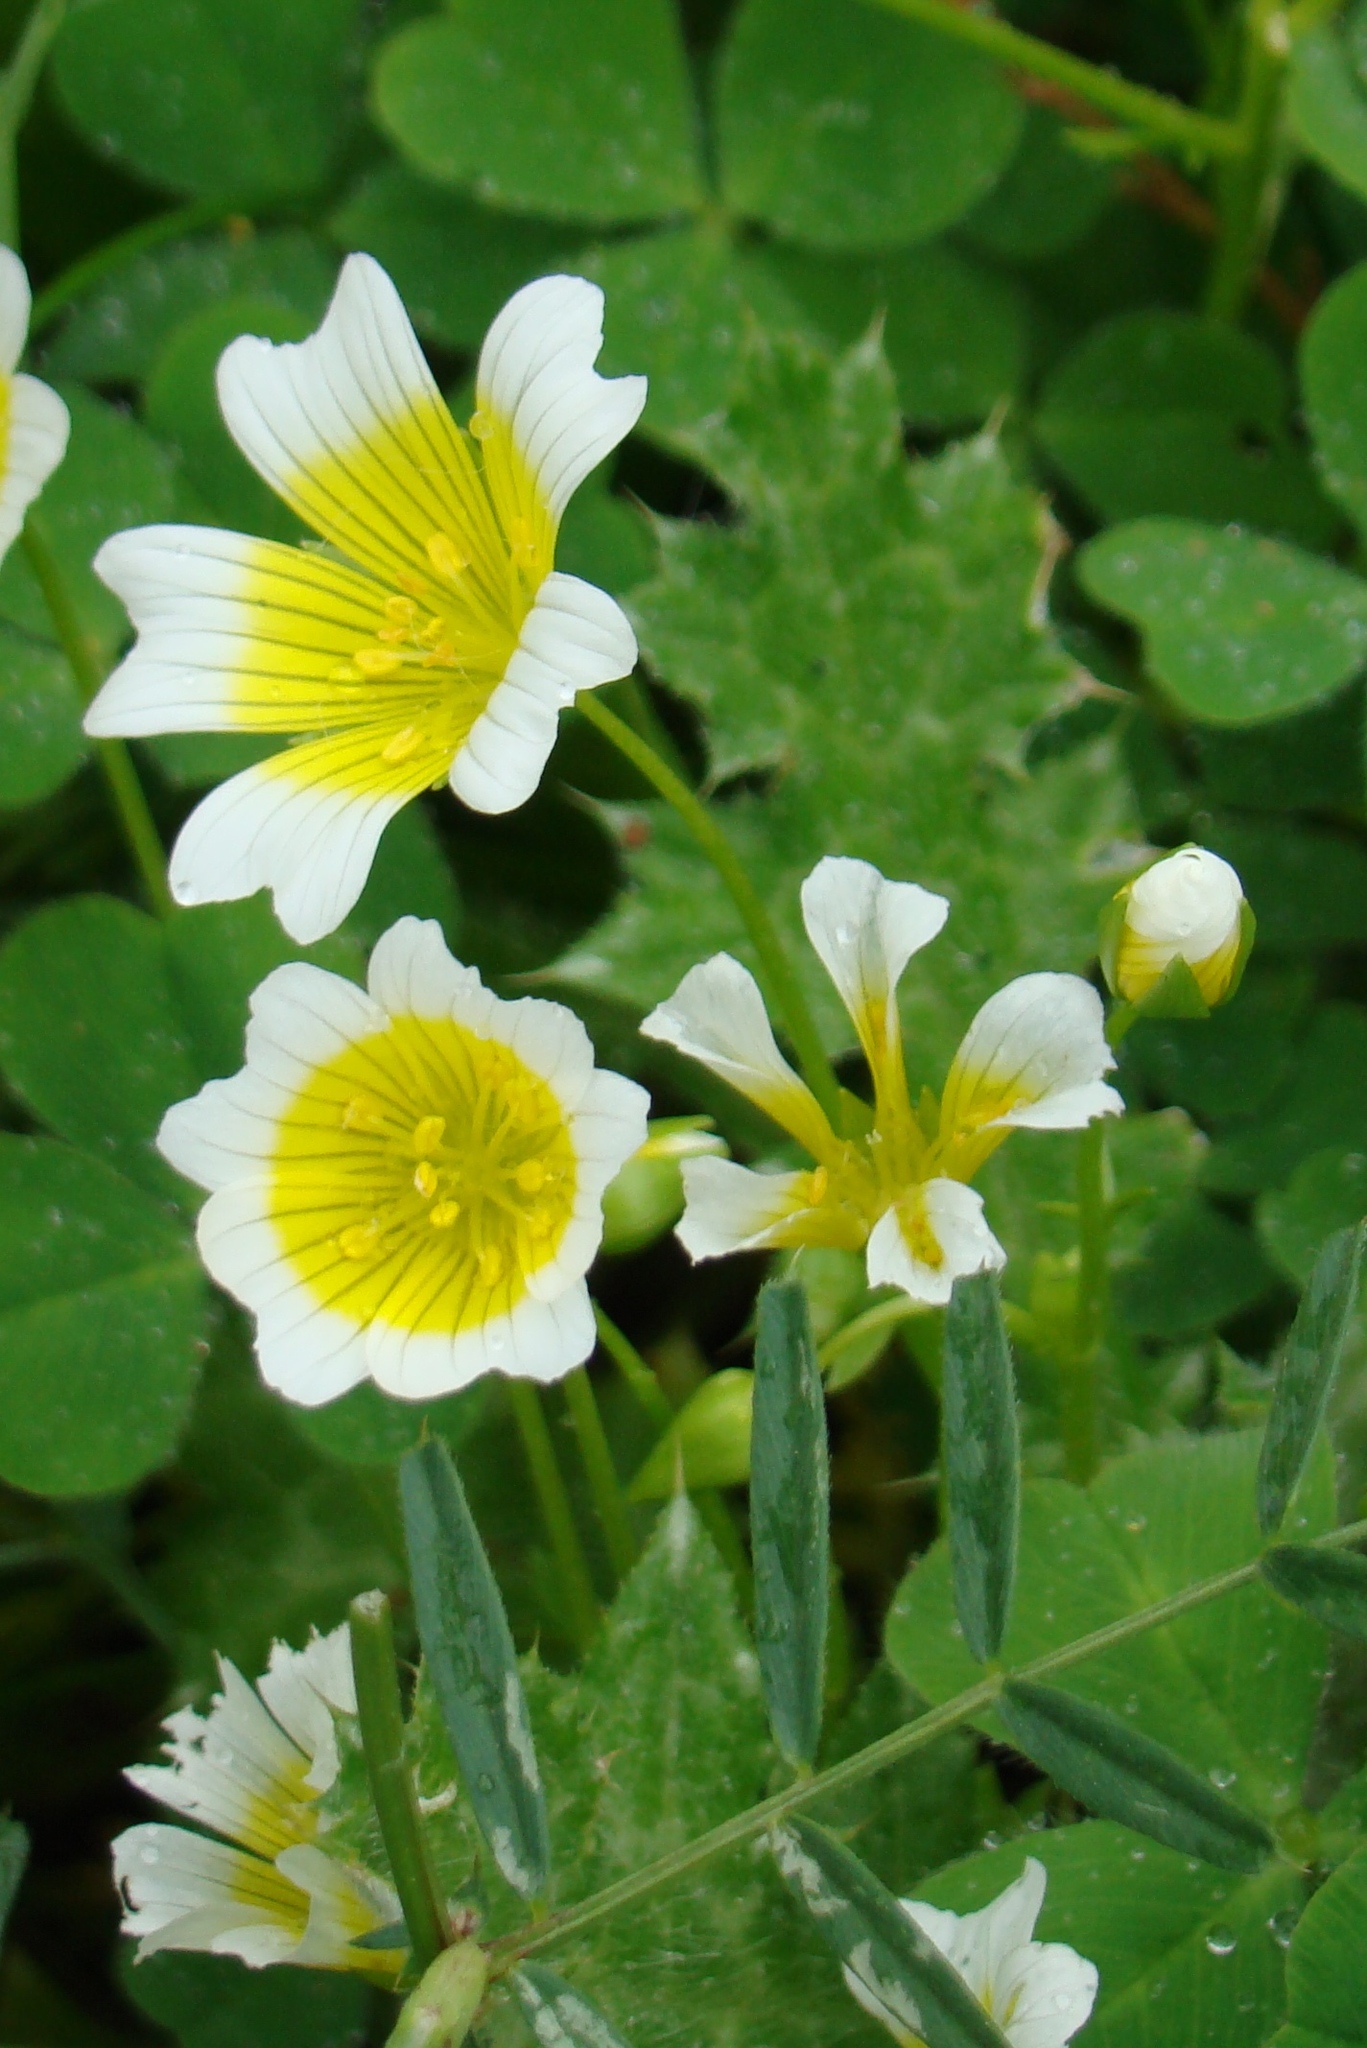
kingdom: Plantae
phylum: Tracheophyta
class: Magnoliopsida
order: Brassicales
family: Limnanthaceae
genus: Limnanthes
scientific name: Limnanthes douglasii
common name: Meadow-foam
